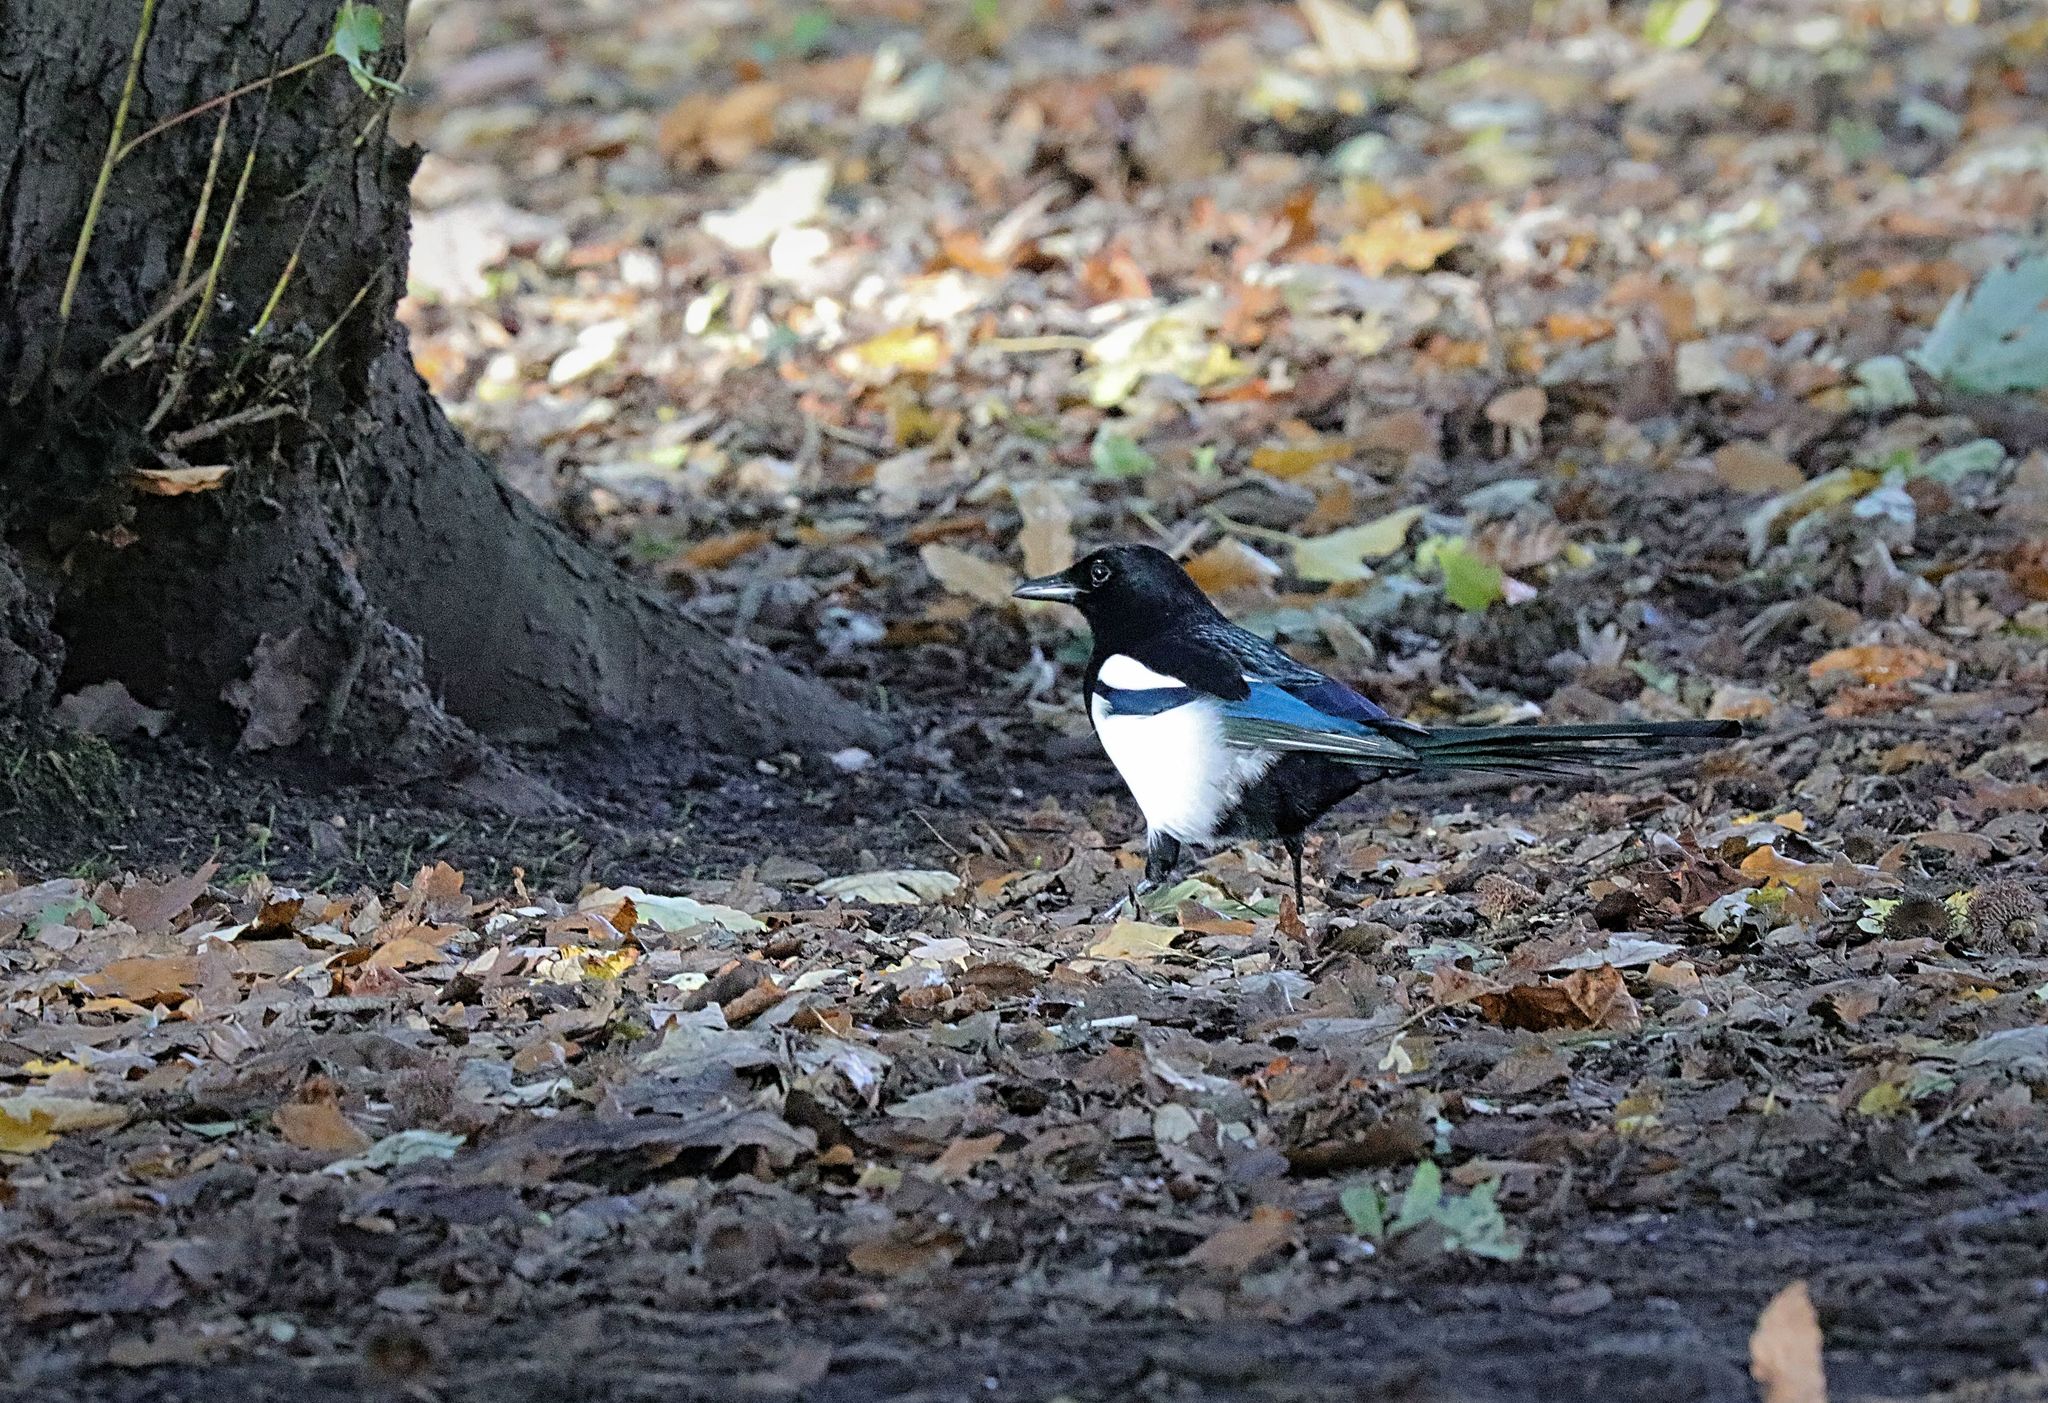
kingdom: Animalia
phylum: Chordata
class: Aves
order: Passeriformes
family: Corvidae
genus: Pica
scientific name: Pica pica
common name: Eurasian magpie
